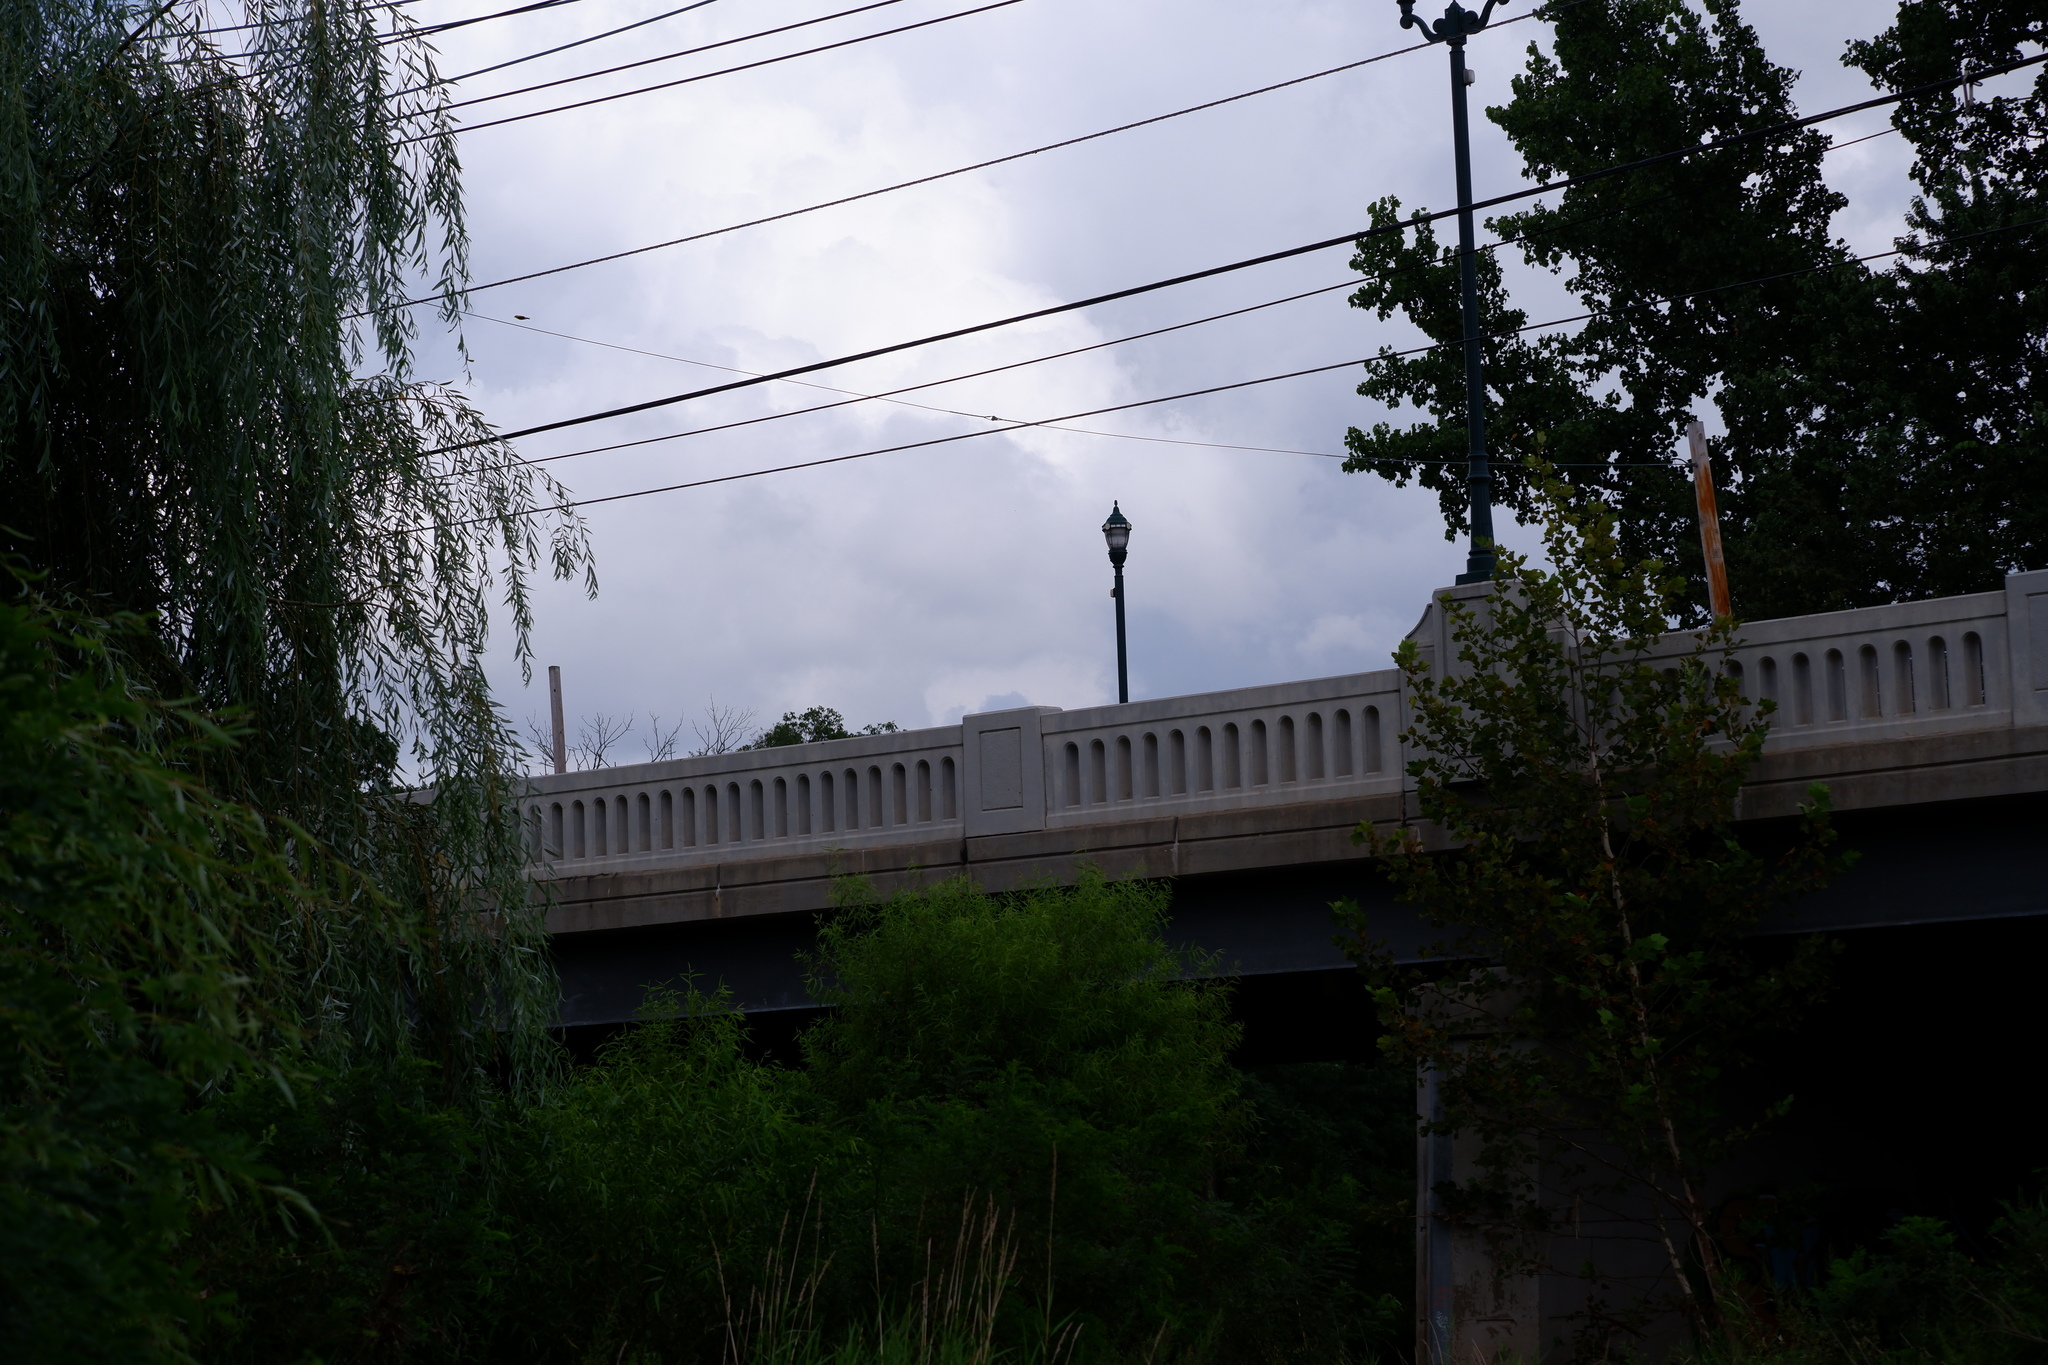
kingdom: Animalia
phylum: Chordata
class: Aves
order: Passeriformes
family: Fringillidae
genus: Spinus
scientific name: Spinus tristis
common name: American goldfinch
